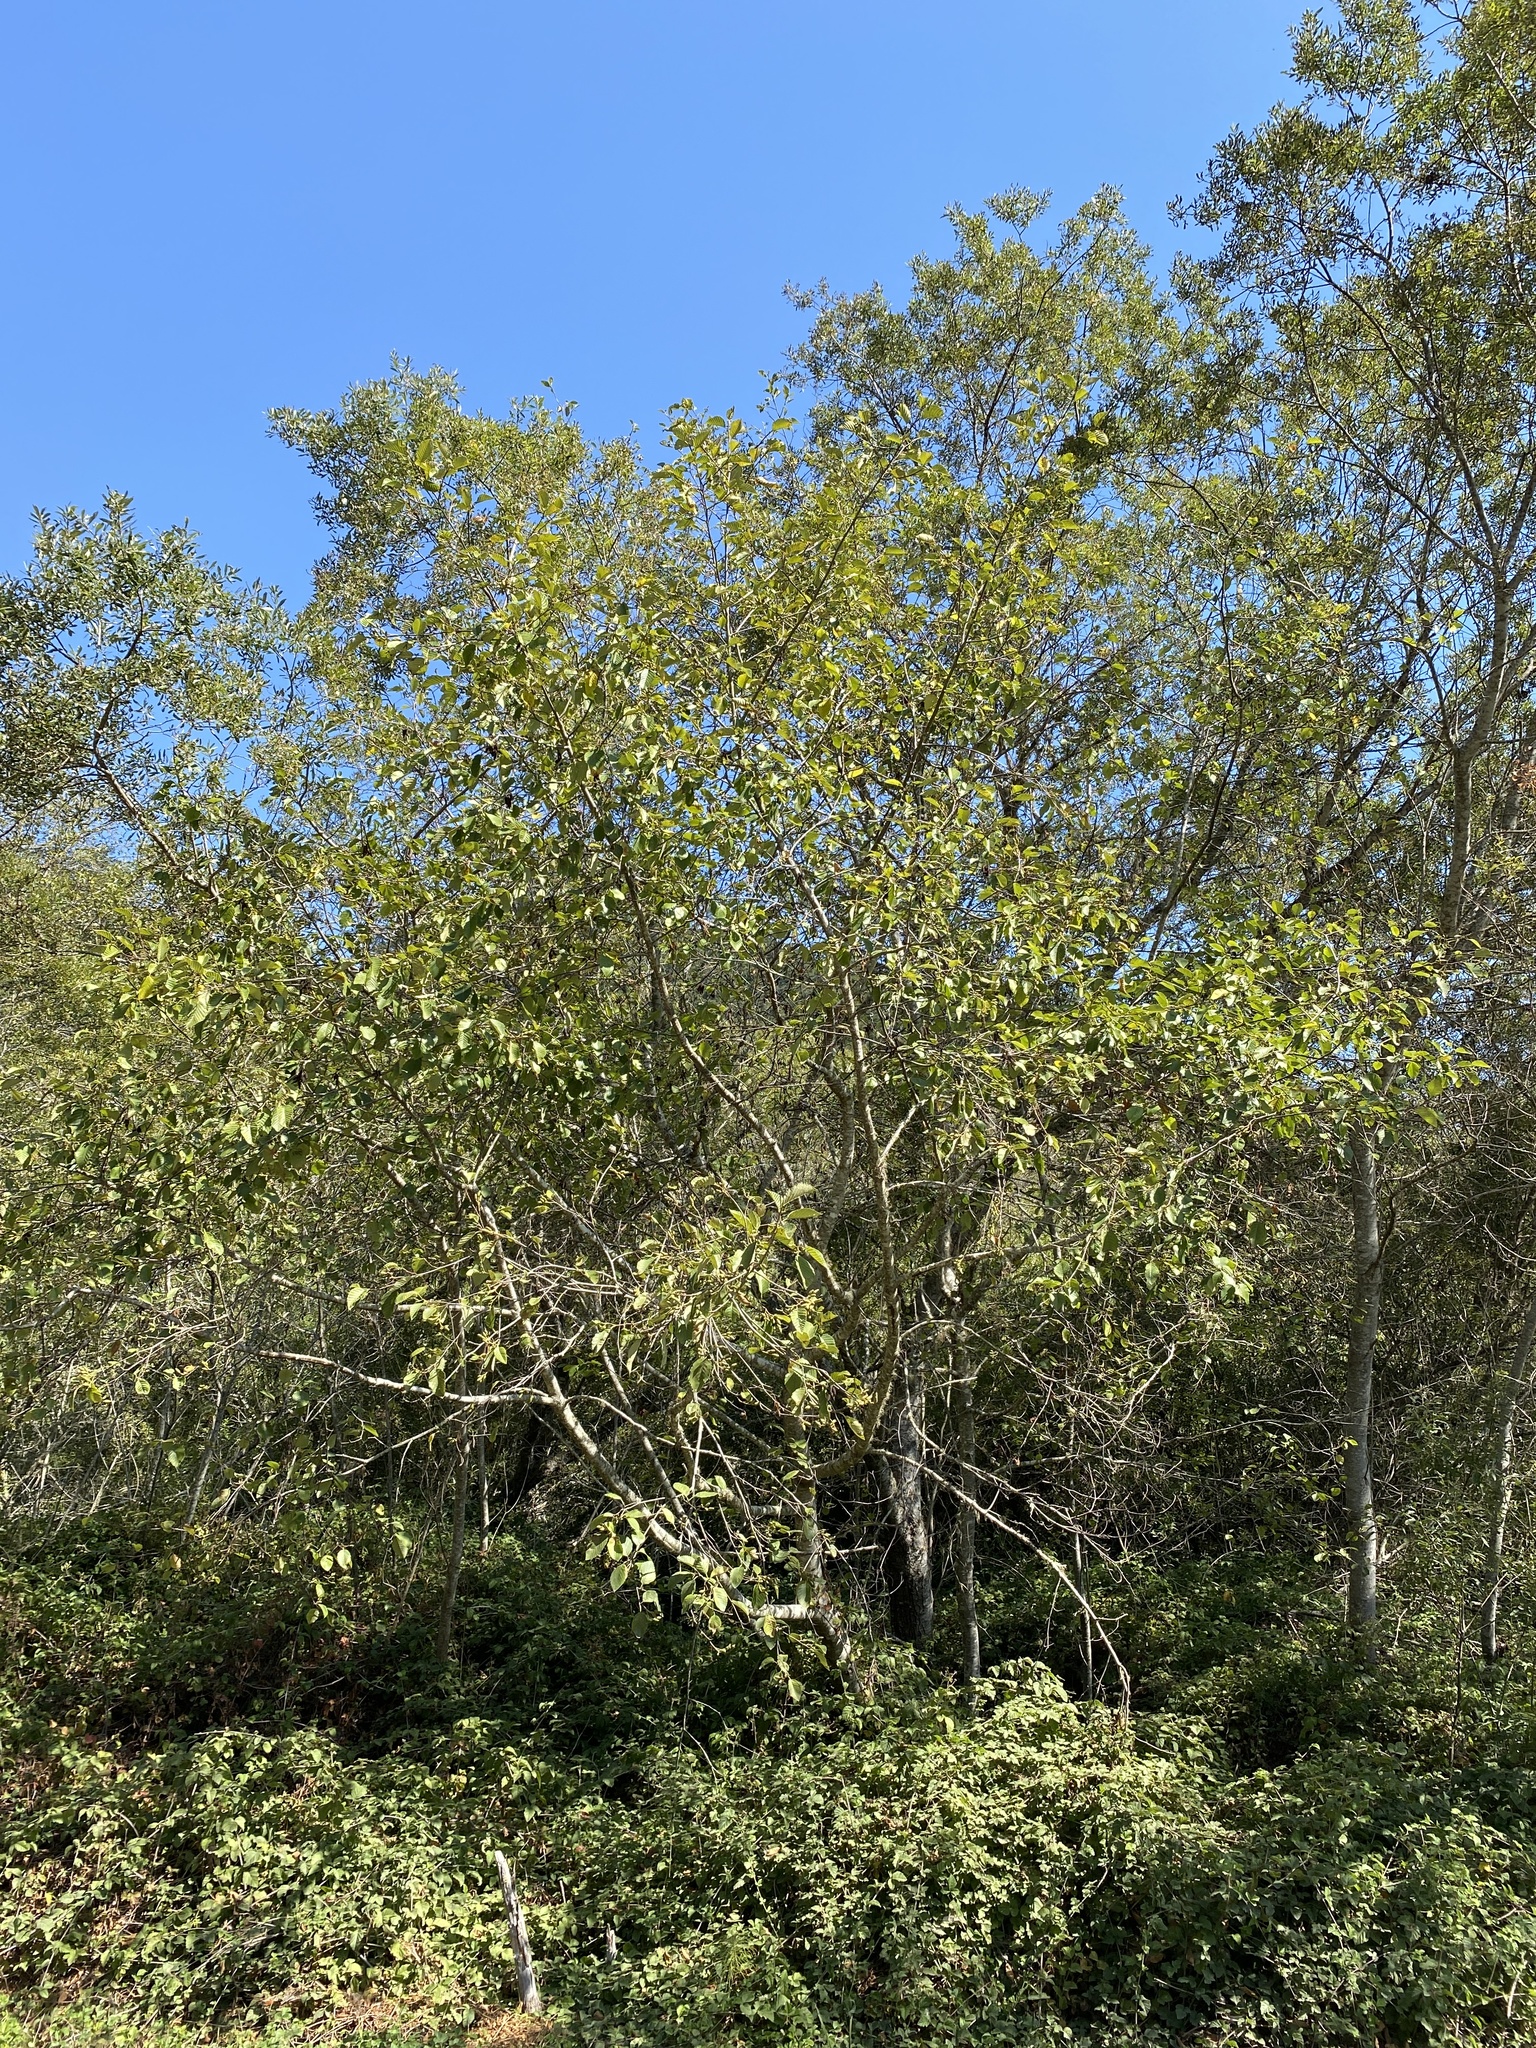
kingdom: Plantae
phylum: Tracheophyta
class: Magnoliopsida
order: Fagales
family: Betulaceae
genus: Alnus
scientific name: Alnus rubra
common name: Red alder
